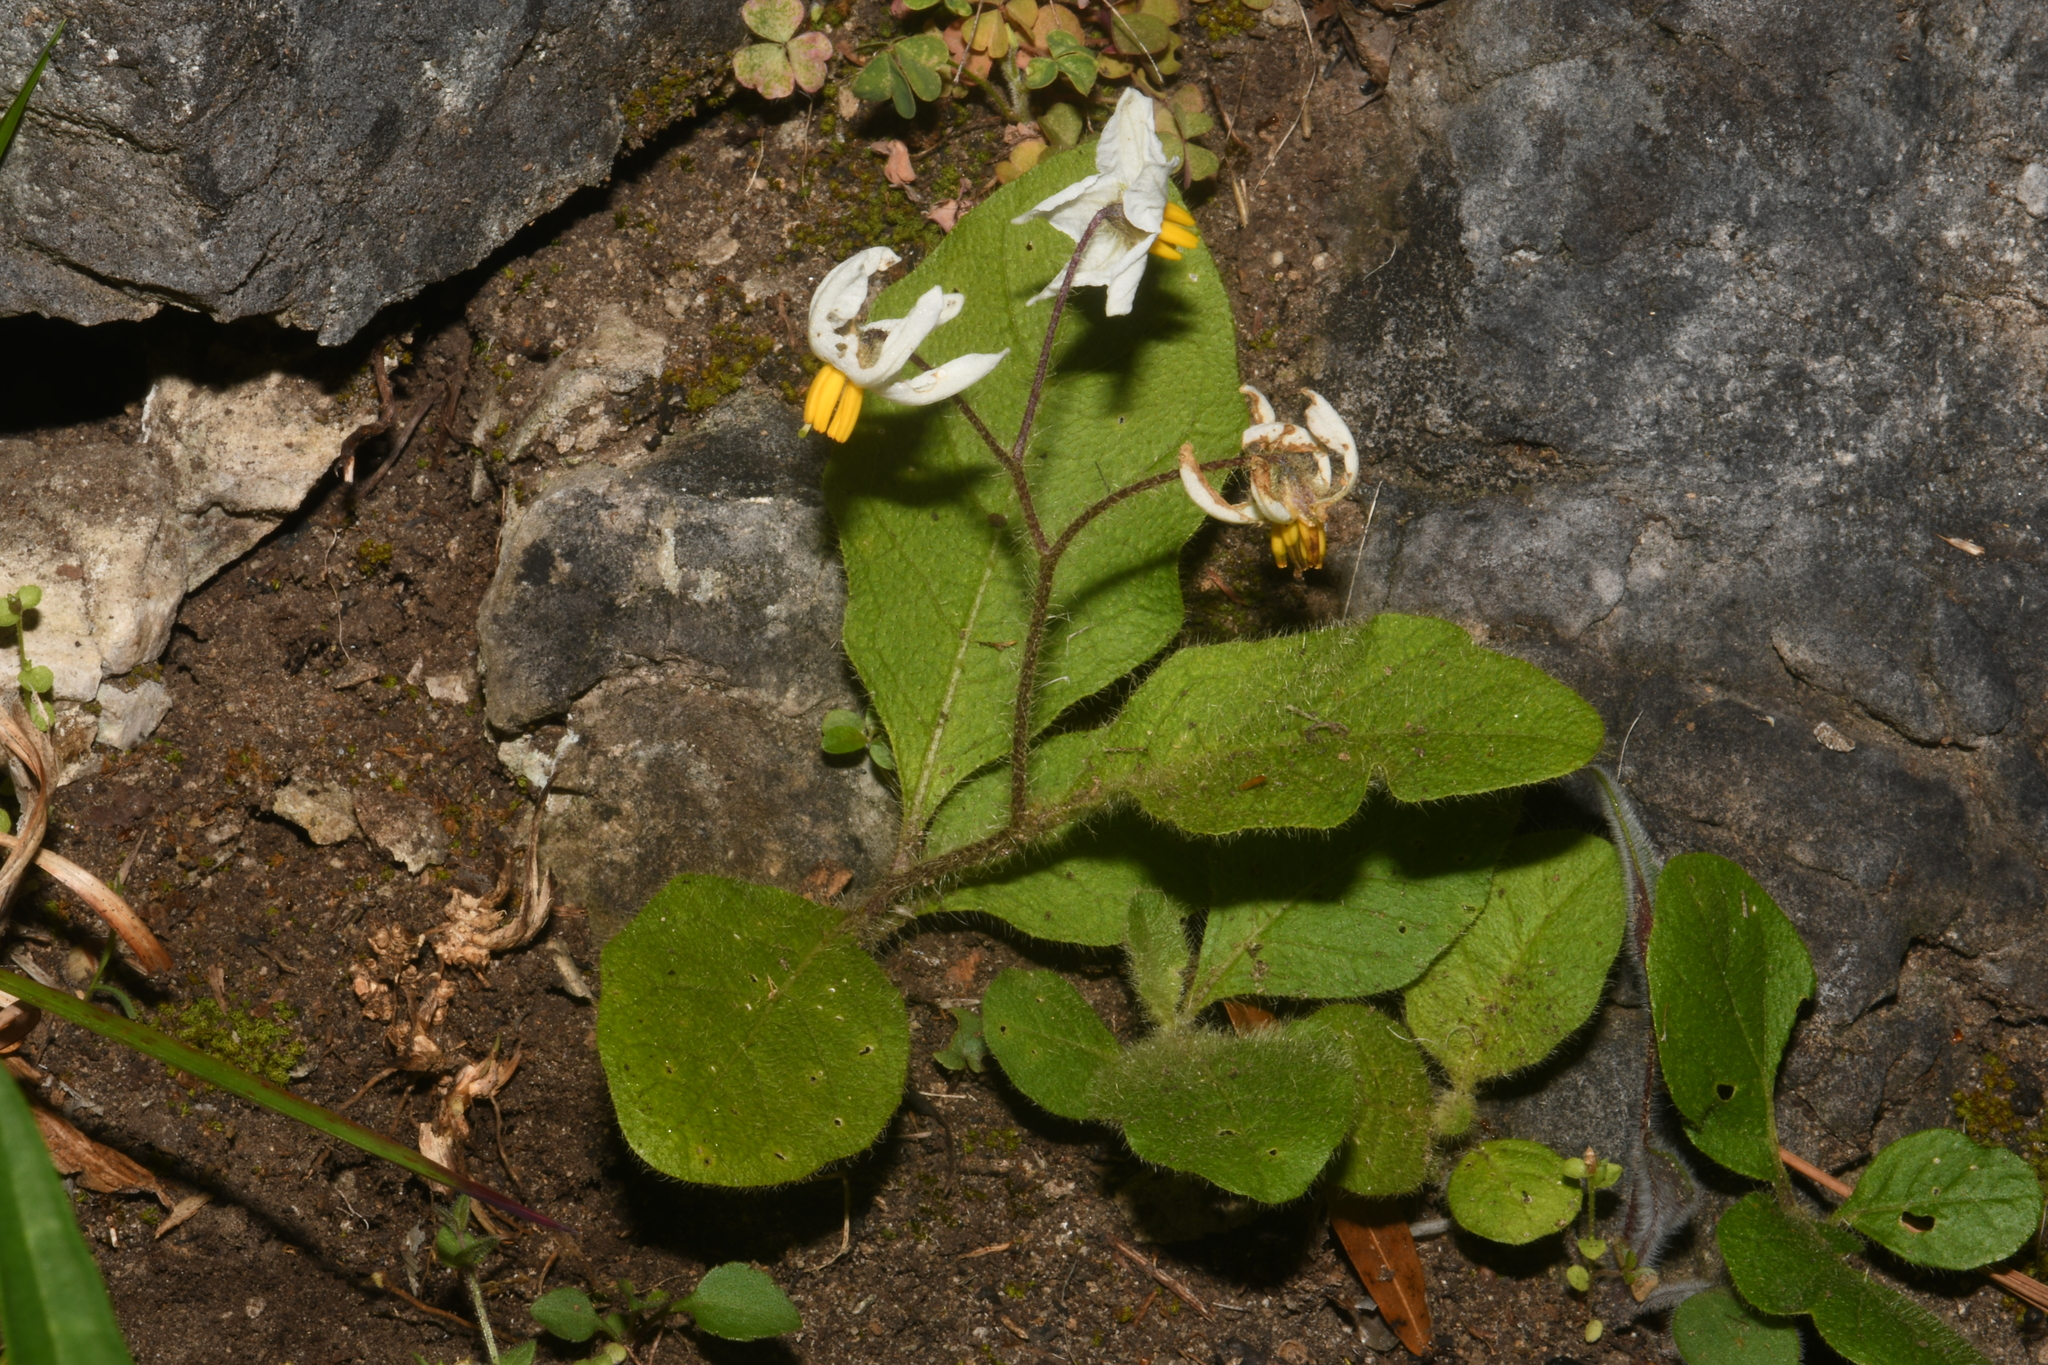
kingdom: Plantae
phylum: Tracheophyta
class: Magnoliopsida
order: Solanales
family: Solanaceae
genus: Solanum
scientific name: Solanum pumilum
